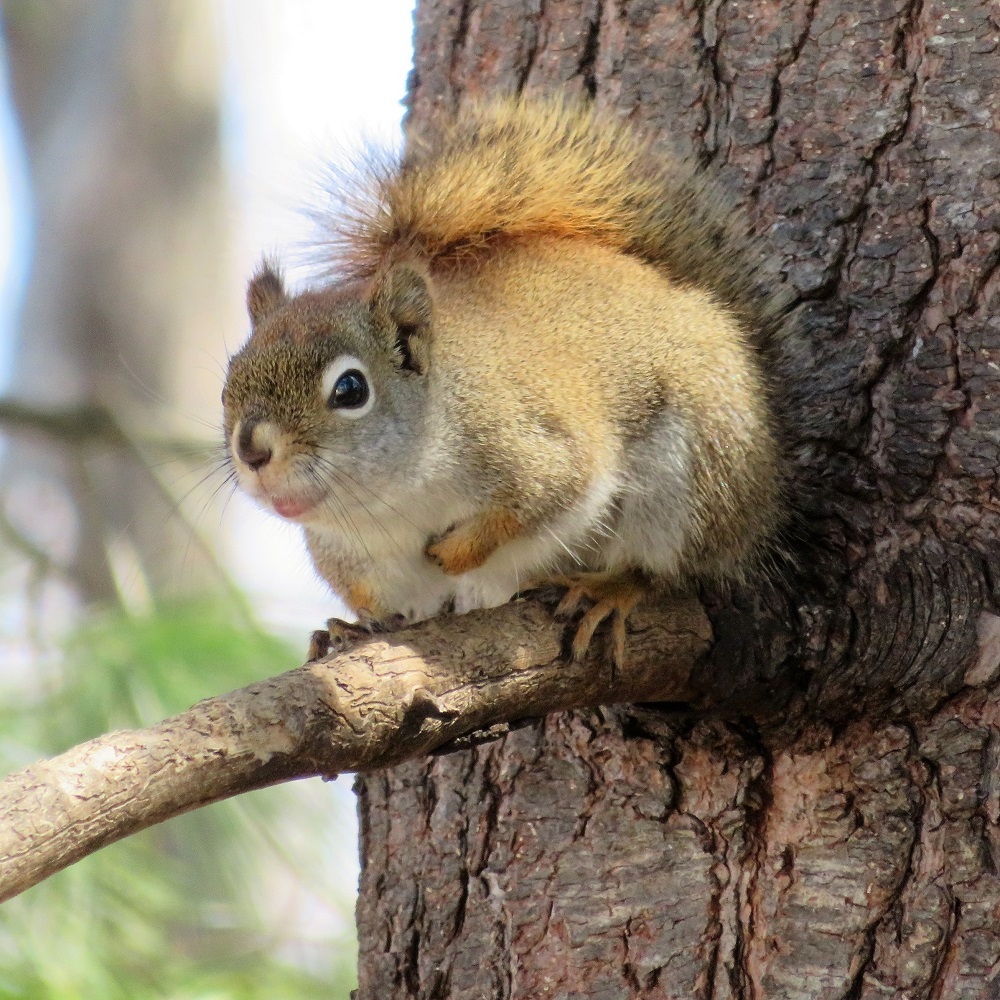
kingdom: Animalia
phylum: Chordata
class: Mammalia
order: Rodentia
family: Sciuridae
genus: Tamiasciurus
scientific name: Tamiasciurus hudsonicus
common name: Red squirrel
